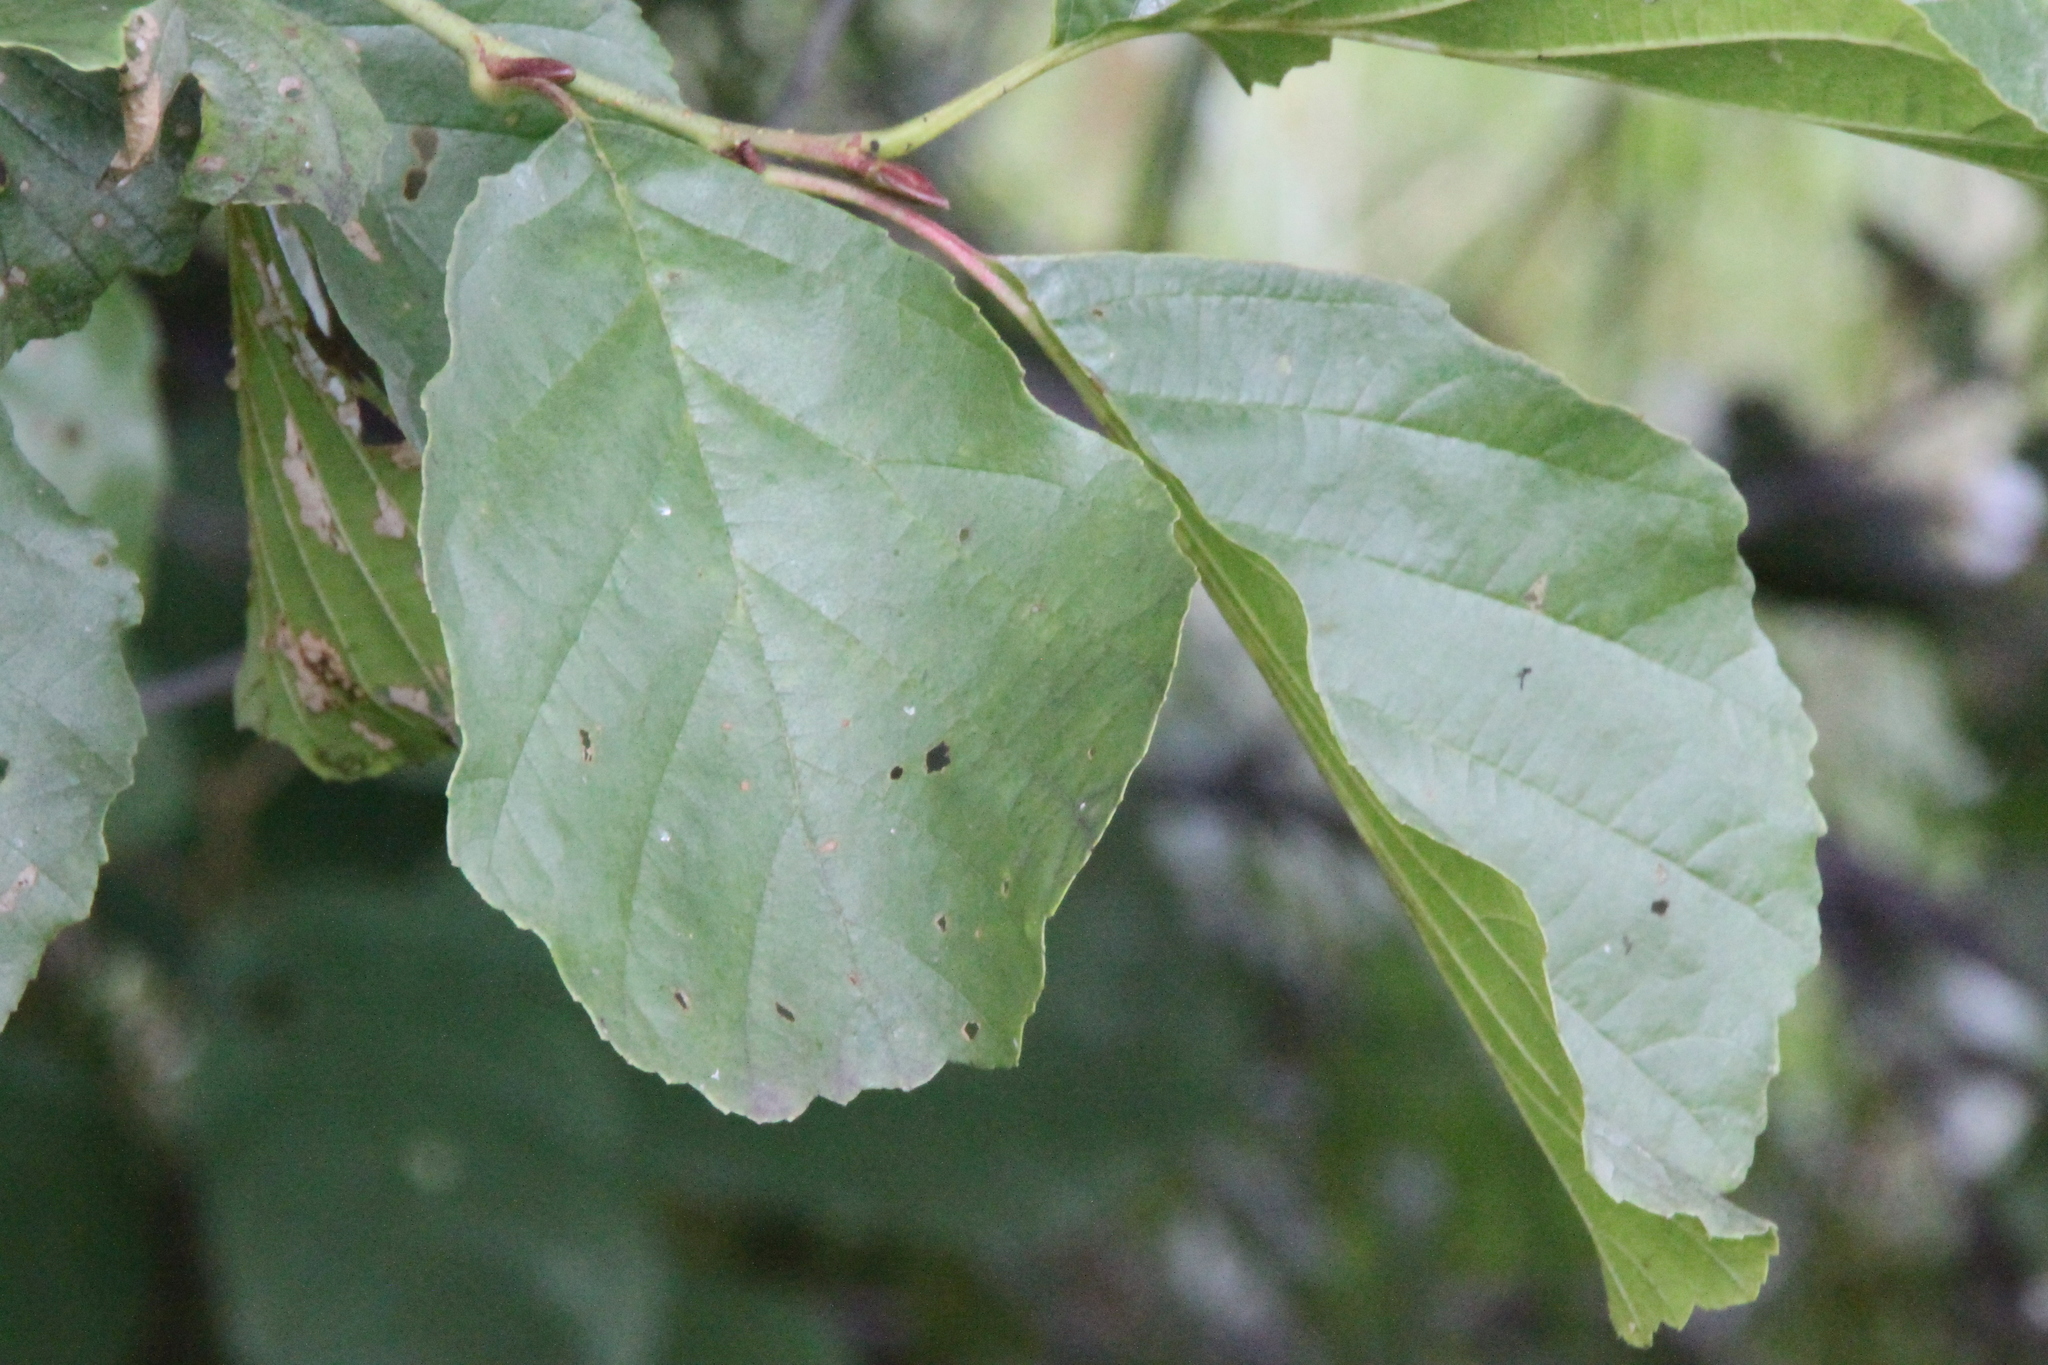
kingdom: Plantae
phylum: Tracheophyta
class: Magnoliopsida
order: Fagales
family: Betulaceae
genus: Alnus
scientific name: Alnus glutinosa
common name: Black alder
